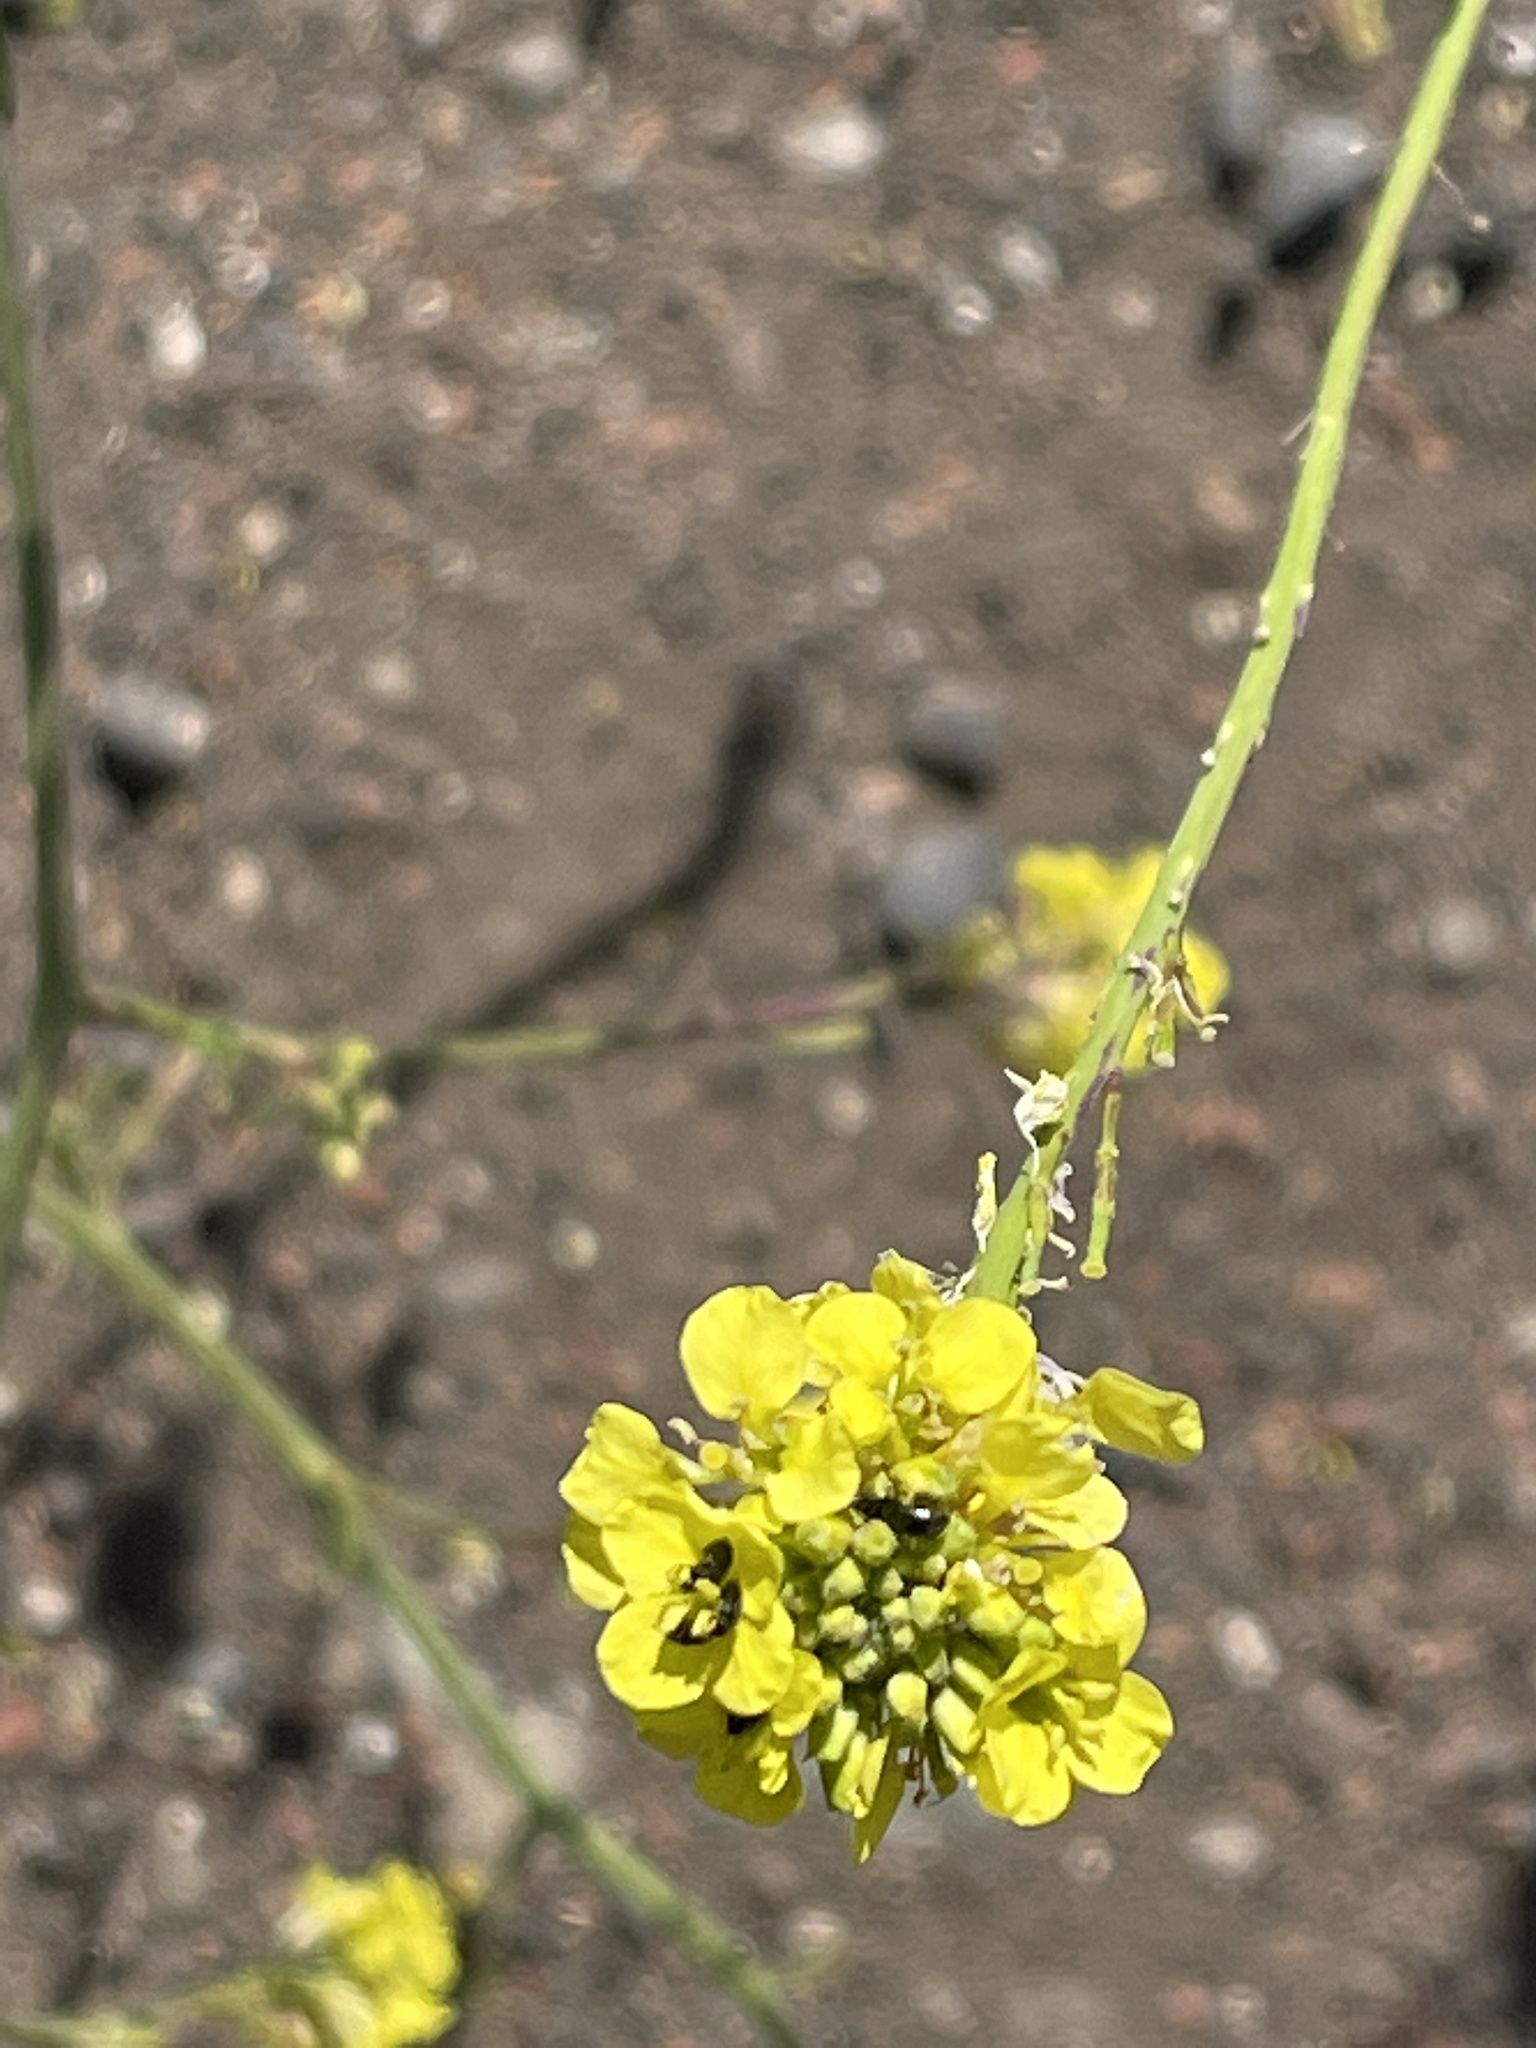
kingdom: Plantae
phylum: Tracheophyta
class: Magnoliopsida
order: Brassicales
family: Brassicaceae
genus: Hirschfeldia
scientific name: Hirschfeldia incana
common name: Hoary mustard
